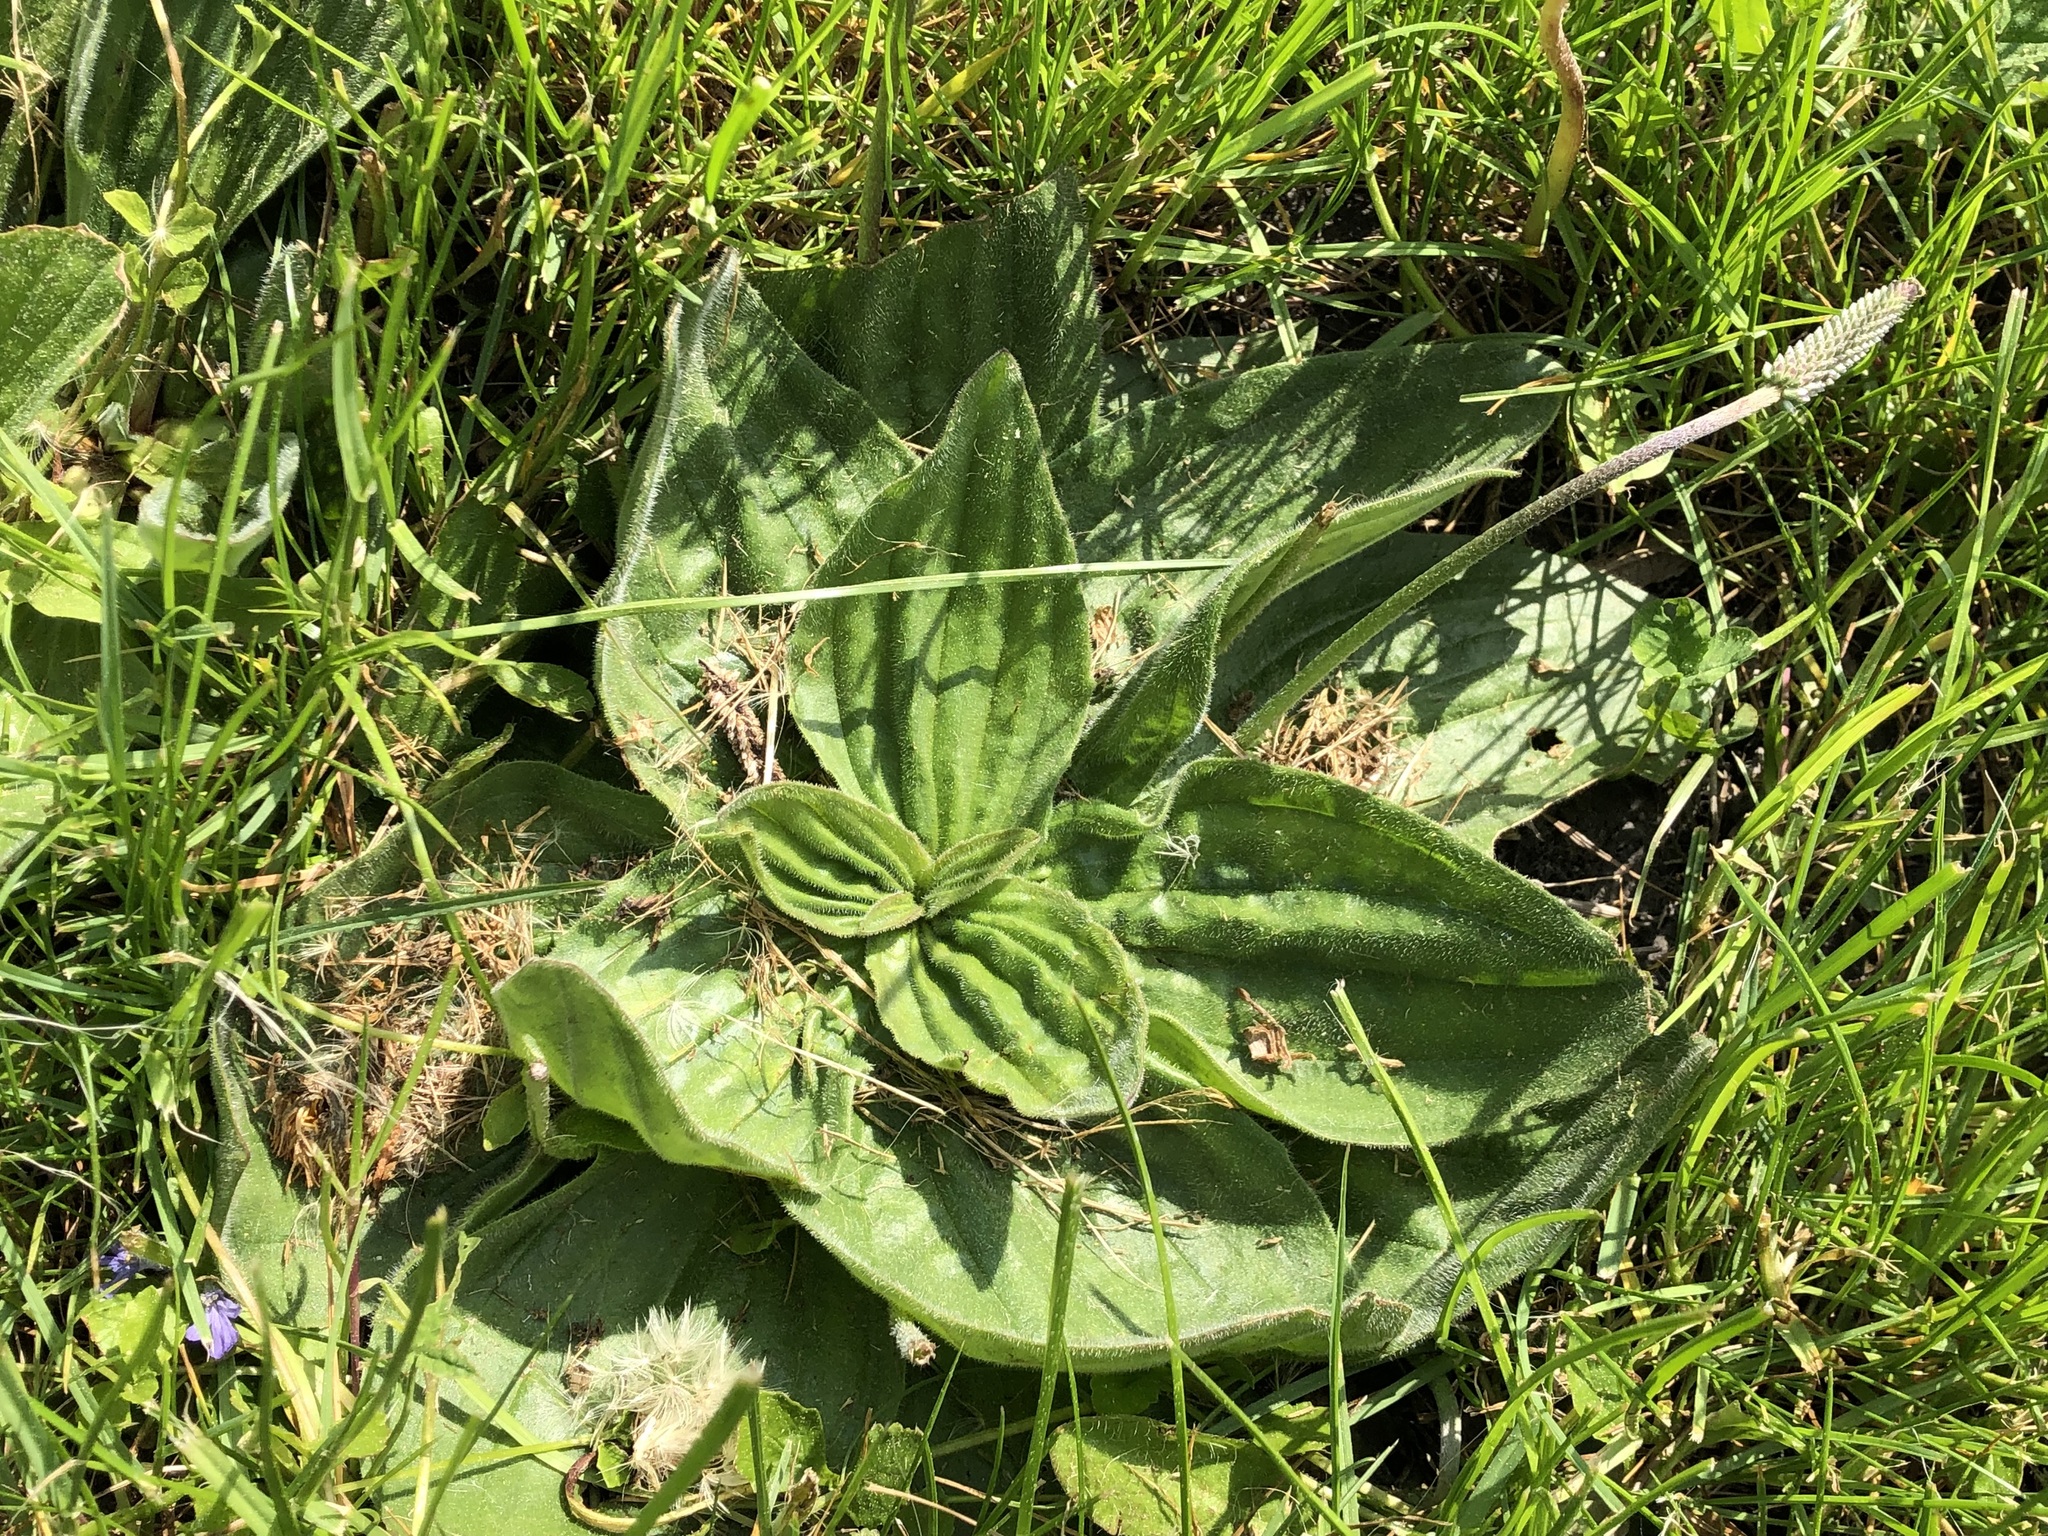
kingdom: Plantae
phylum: Tracheophyta
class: Magnoliopsida
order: Lamiales
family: Plantaginaceae
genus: Plantago
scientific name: Plantago media
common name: Hoary plantain
